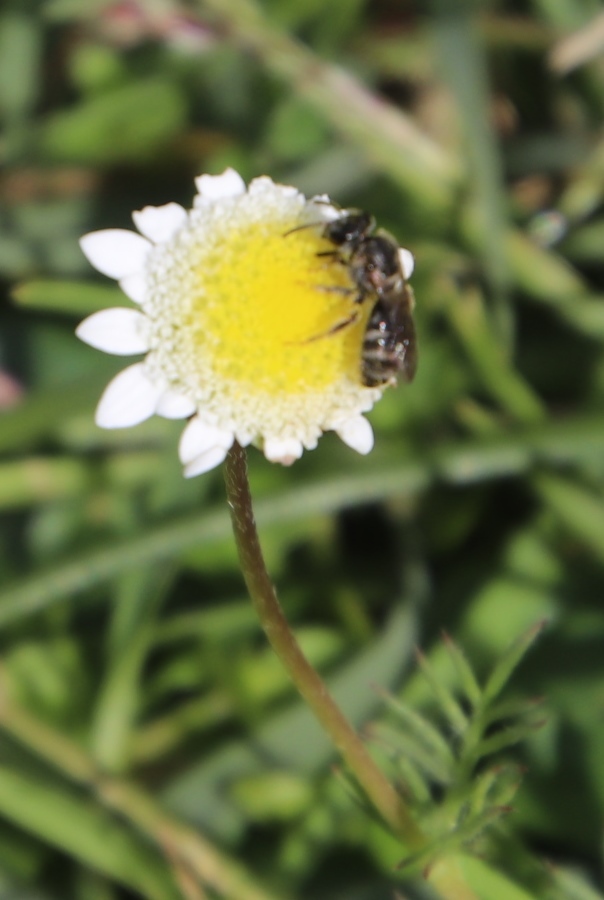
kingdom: Plantae
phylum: Tracheophyta
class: Magnoliopsida
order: Asterales
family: Asteraceae
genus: Cotula
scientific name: Cotula turbinata
